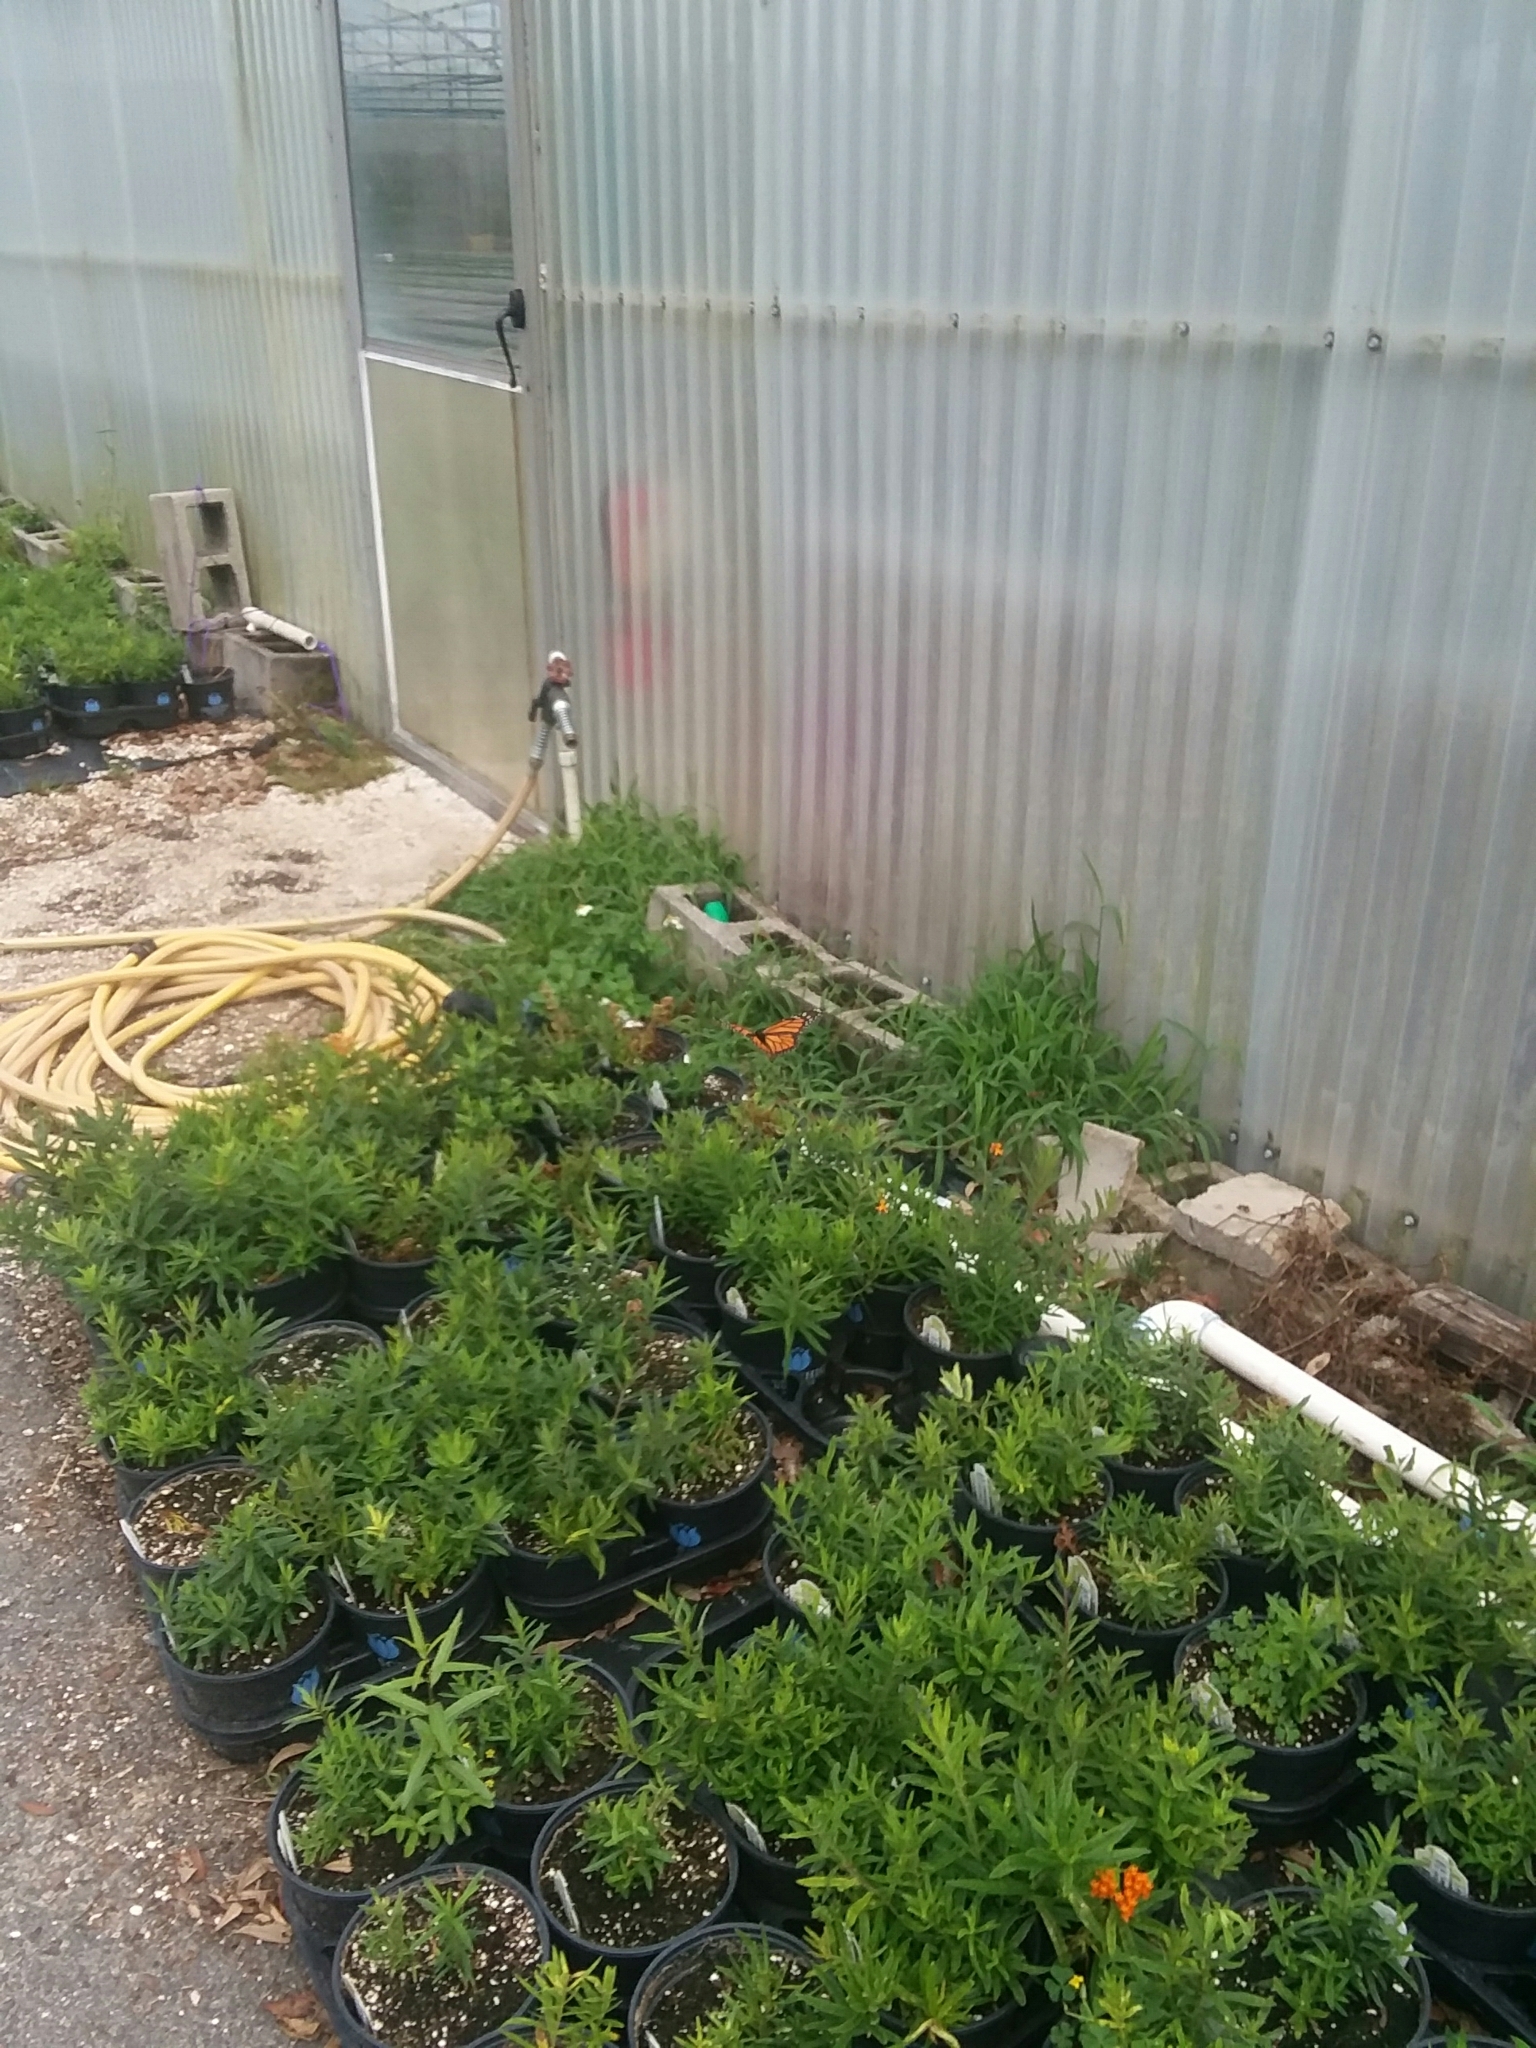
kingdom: Animalia
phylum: Arthropoda
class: Insecta
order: Lepidoptera
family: Nymphalidae
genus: Danaus
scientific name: Danaus plexippus
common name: Monarch
